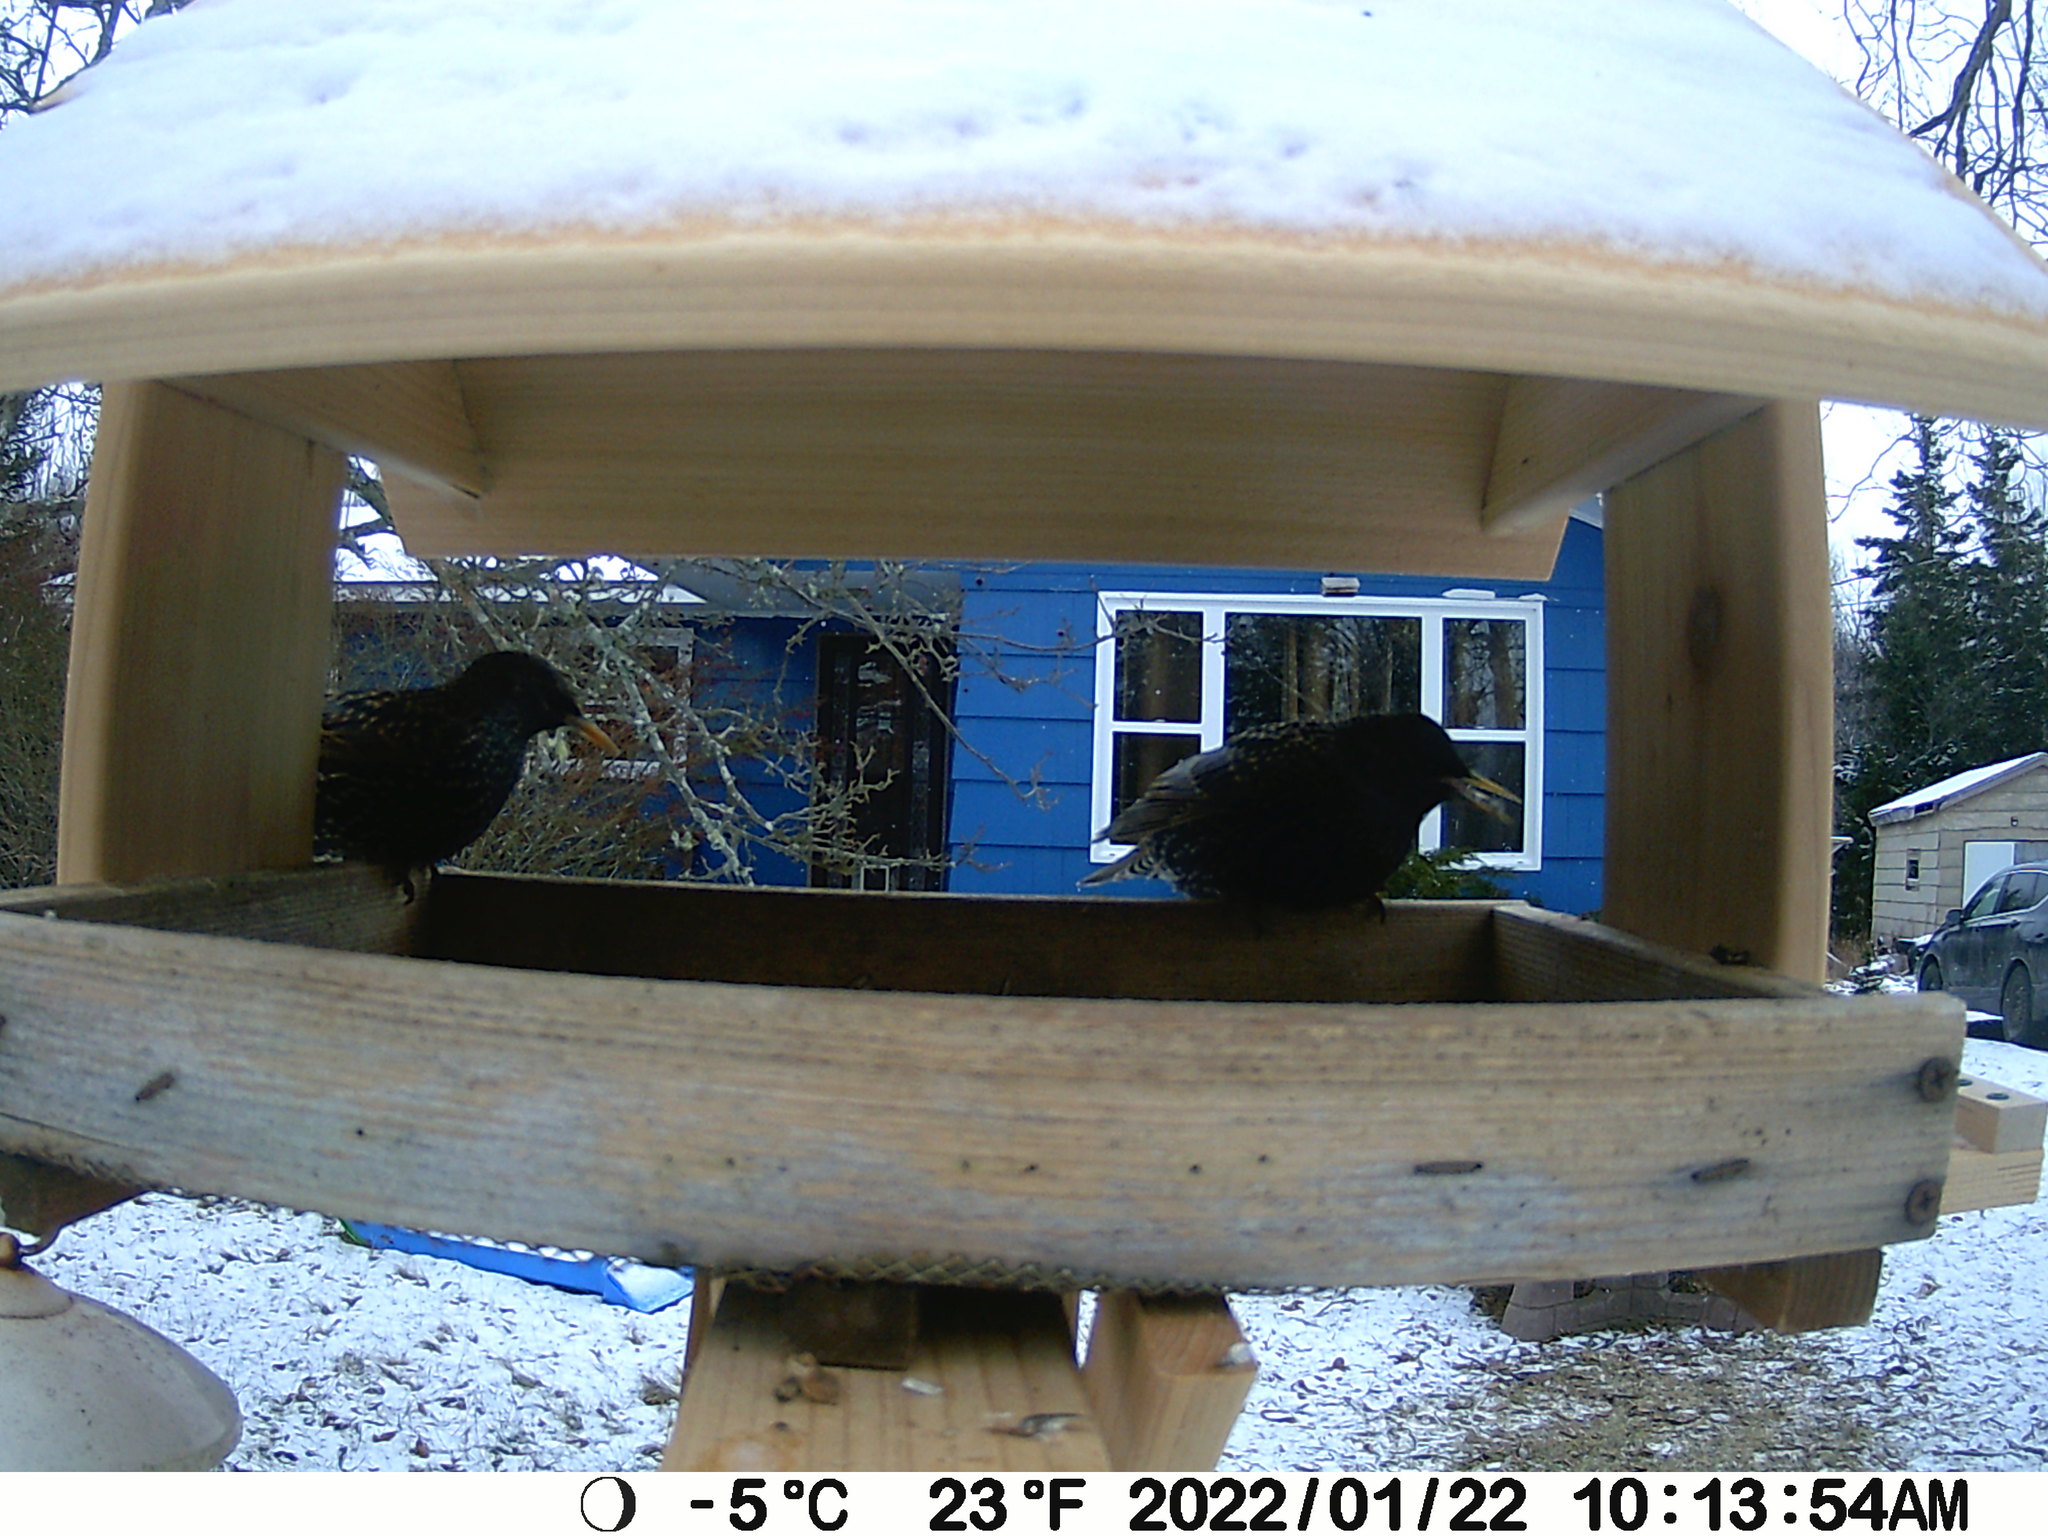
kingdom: Animalia
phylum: Chordata
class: Aves
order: Passeriformes
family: Sturnidae
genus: Sturnus
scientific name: Sturnus vulgaris
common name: Common starling
